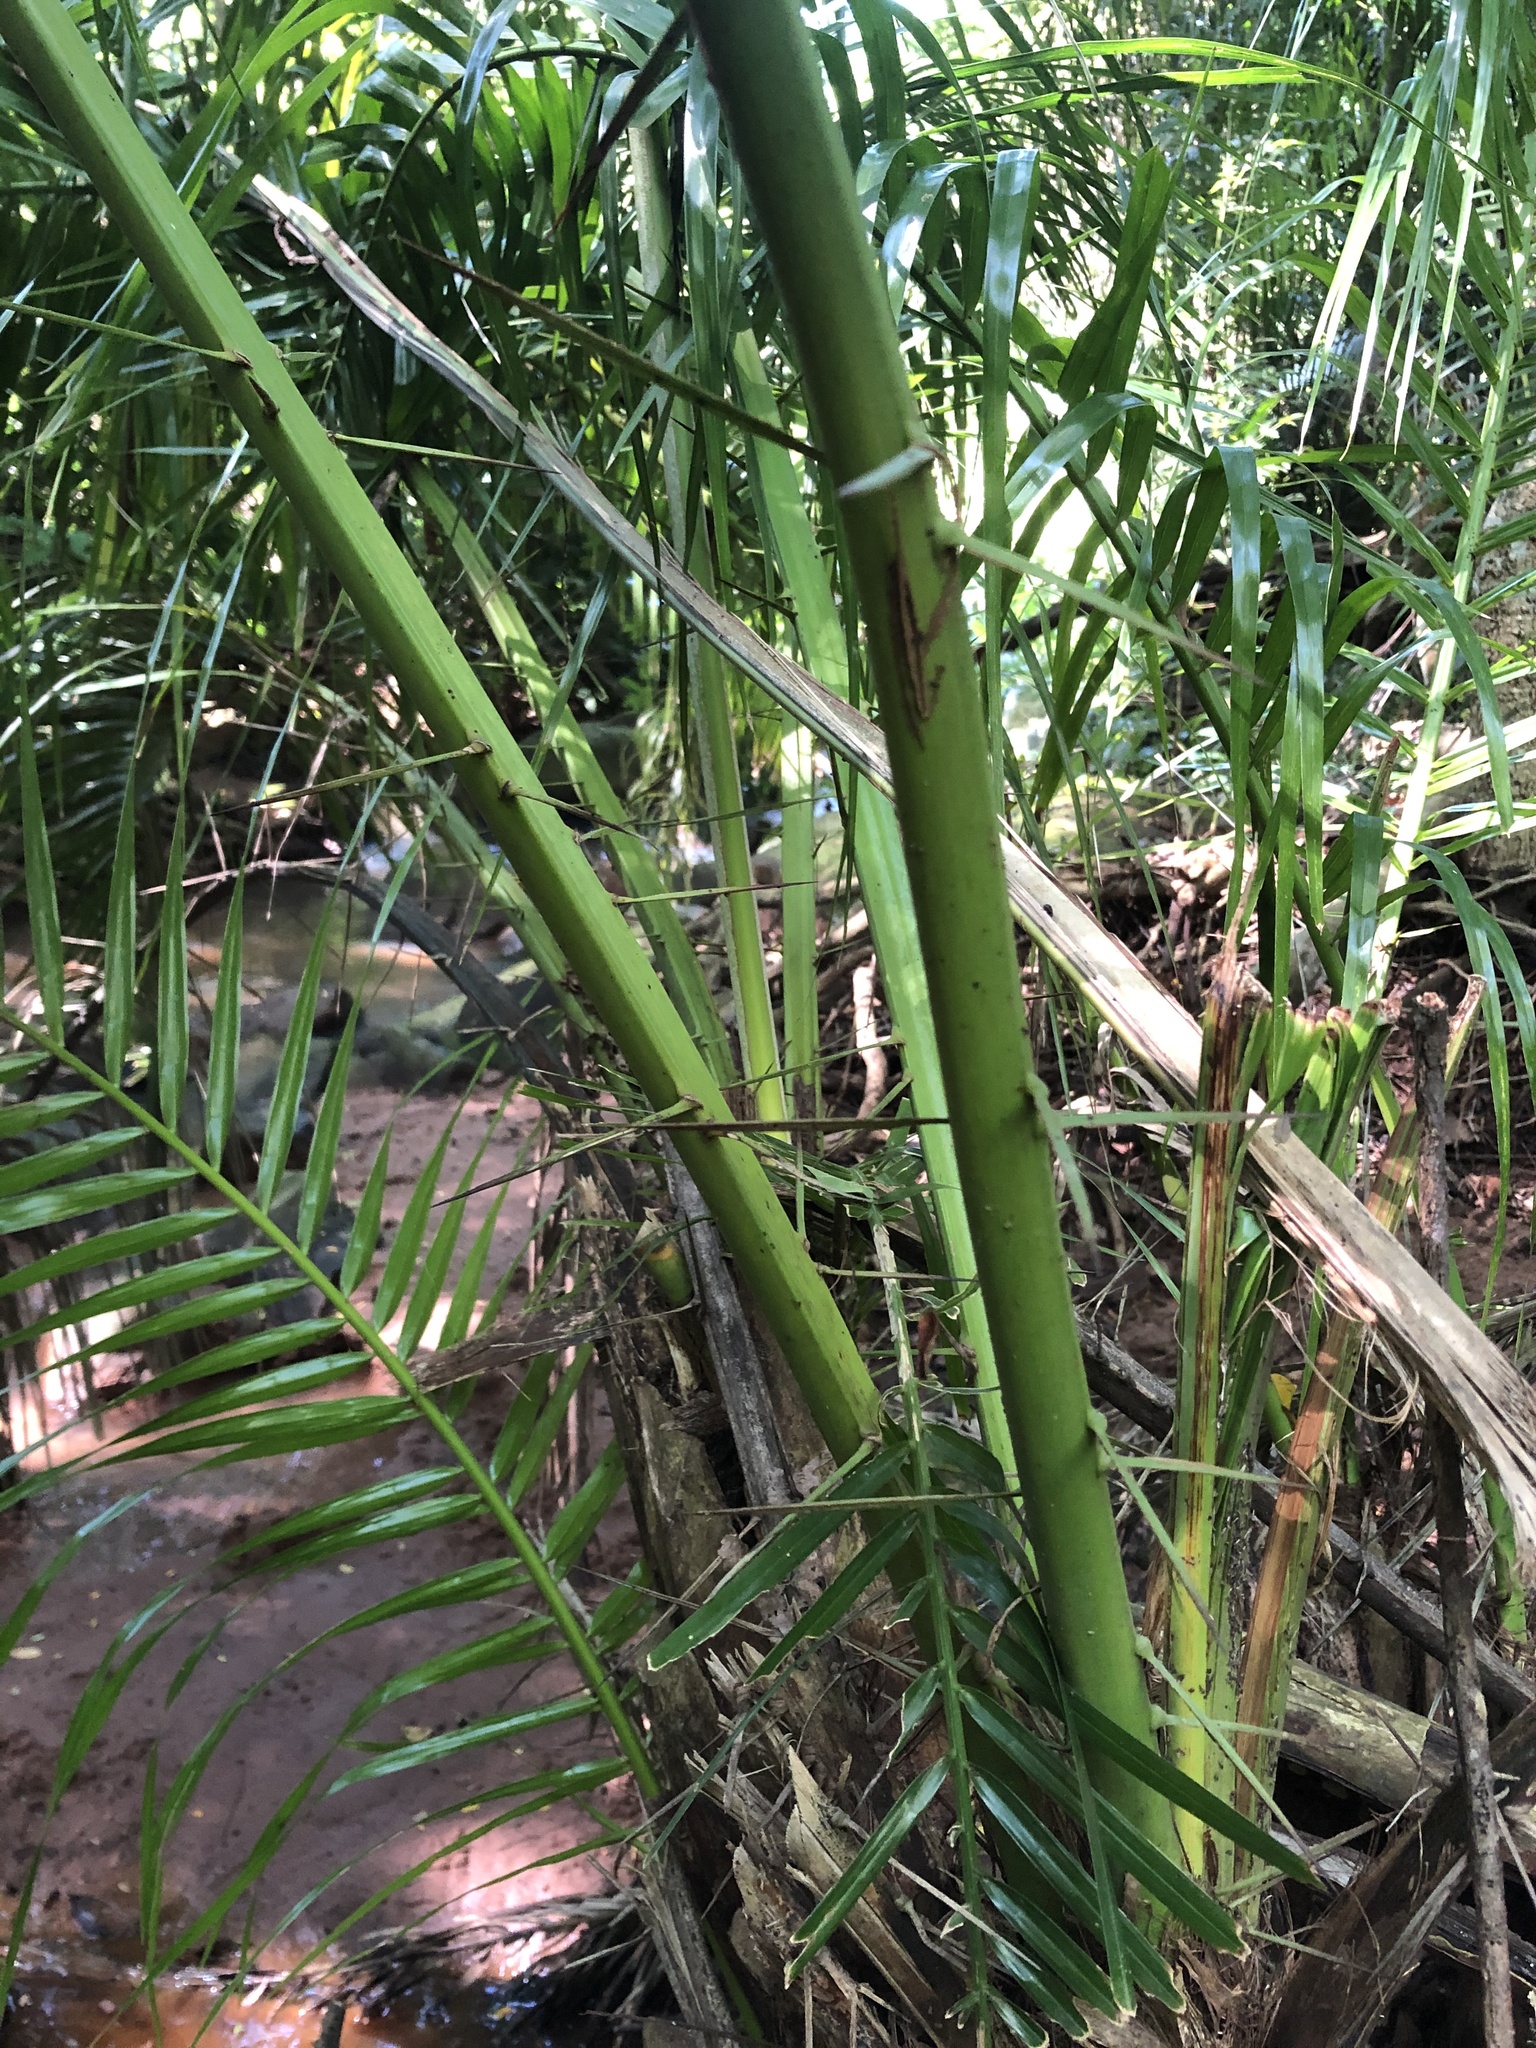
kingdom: Plantae
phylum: Tracheophyta
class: Liliopsida
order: Arecales
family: Arecaceae
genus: Phoenix
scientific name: Phoenix reclinata
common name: Senegal date palm
